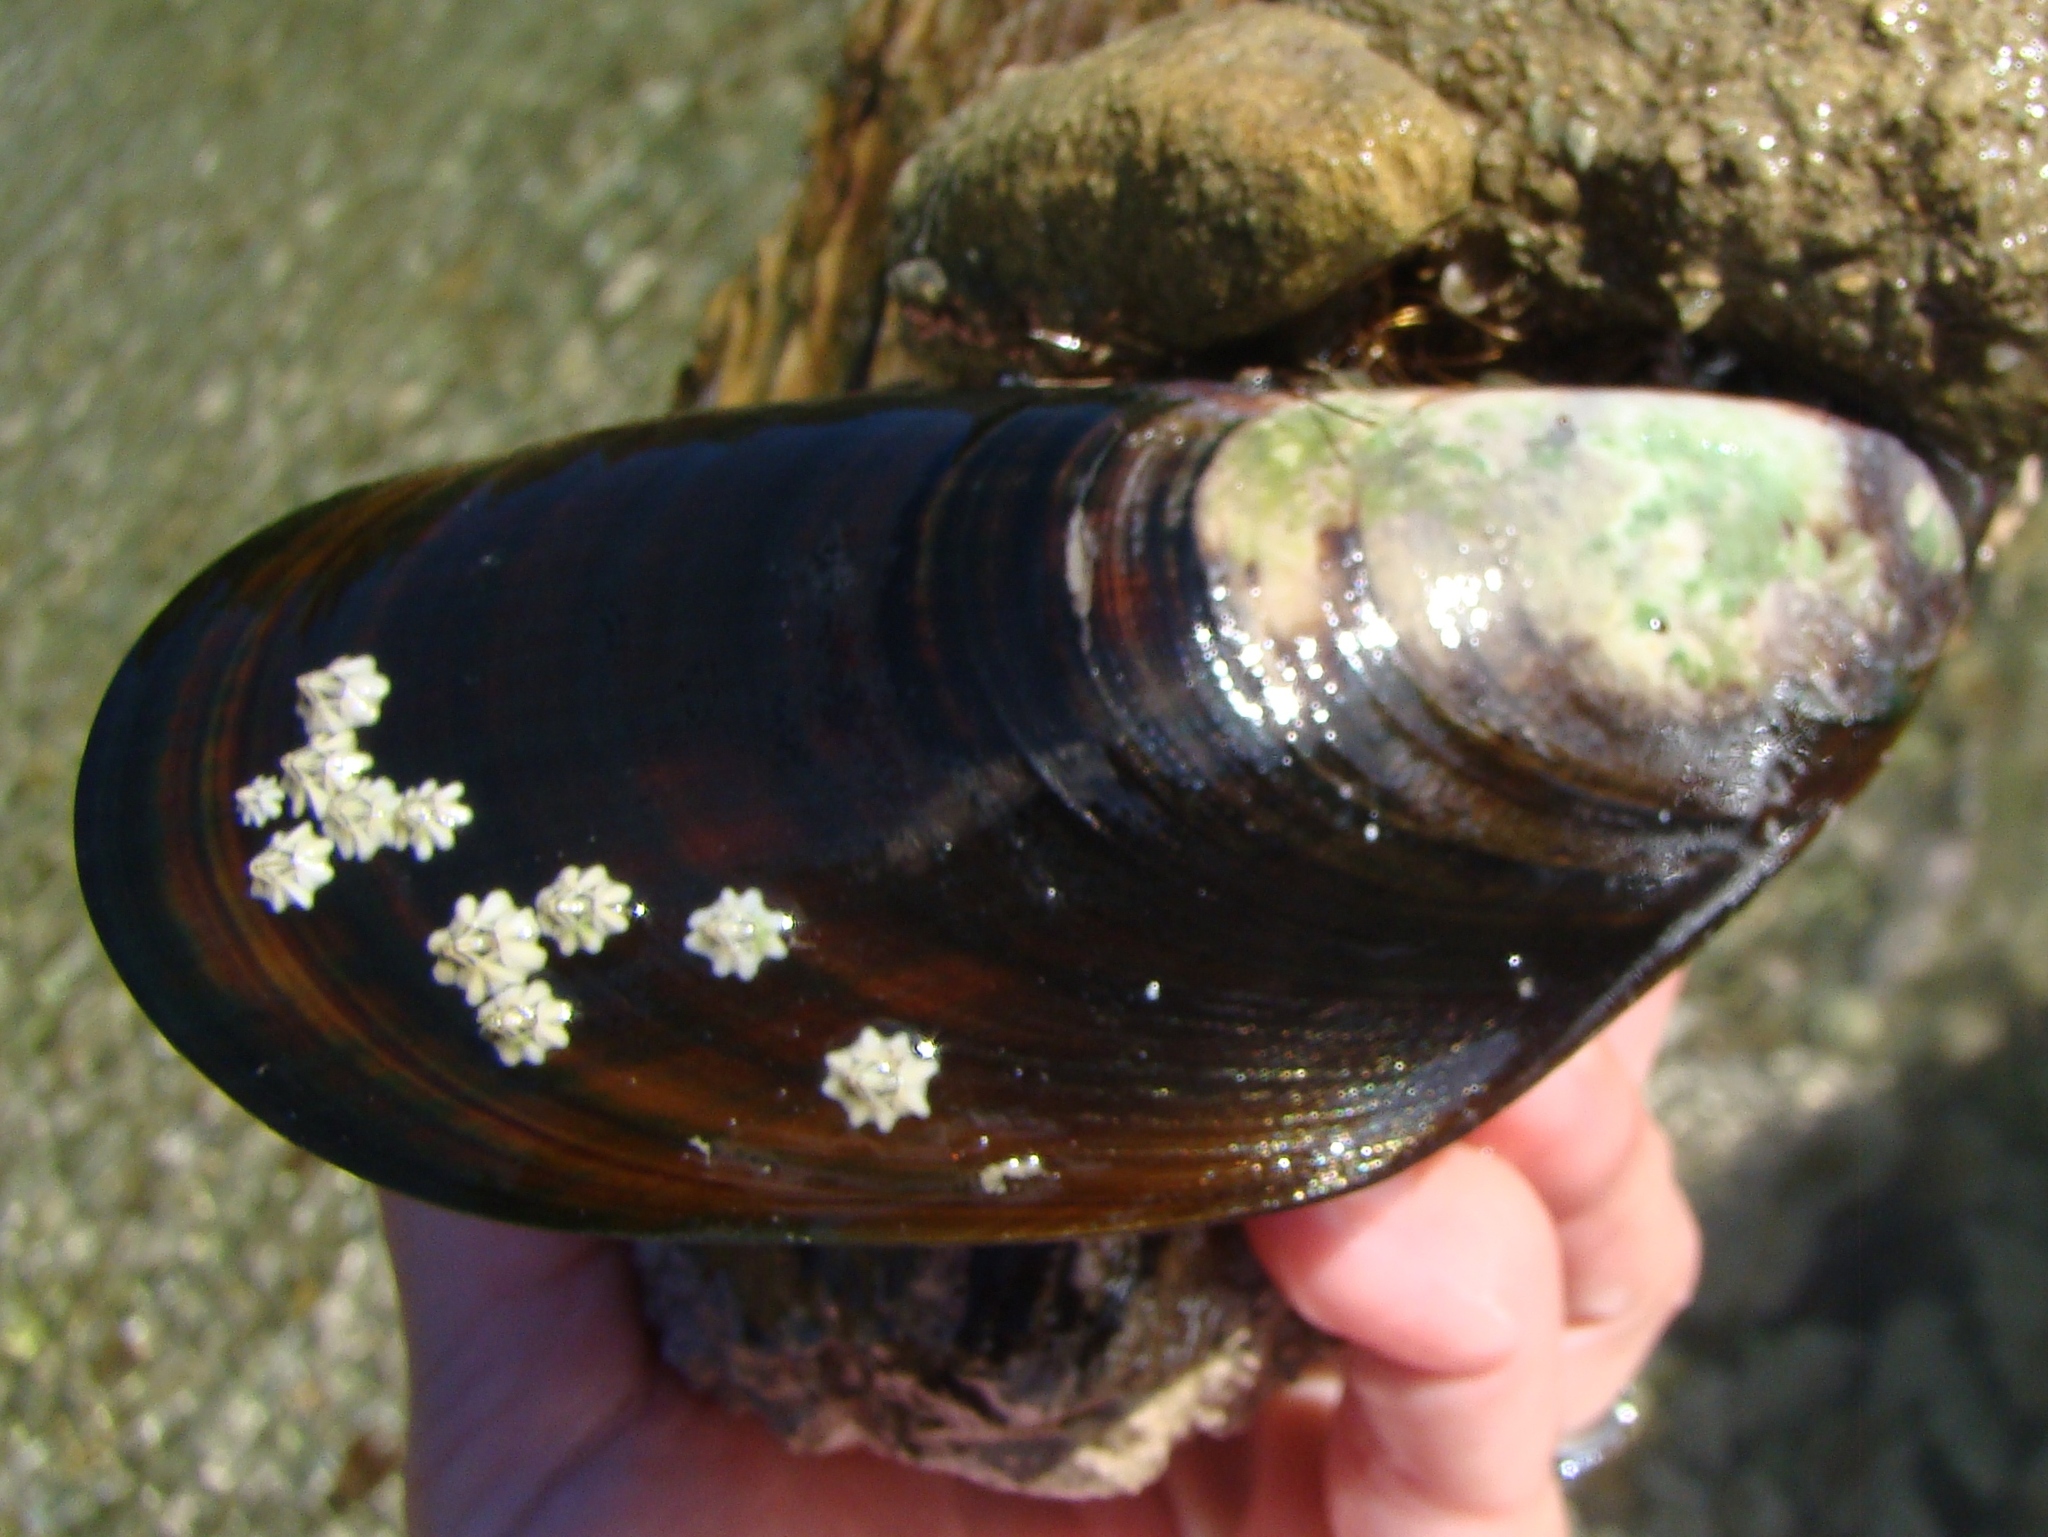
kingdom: Animalia
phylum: Mollusca
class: Bivalvia
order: Mytilida
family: Mytilidae
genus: Perna
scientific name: Perna canaliculus
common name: New zealand greenshelltm
